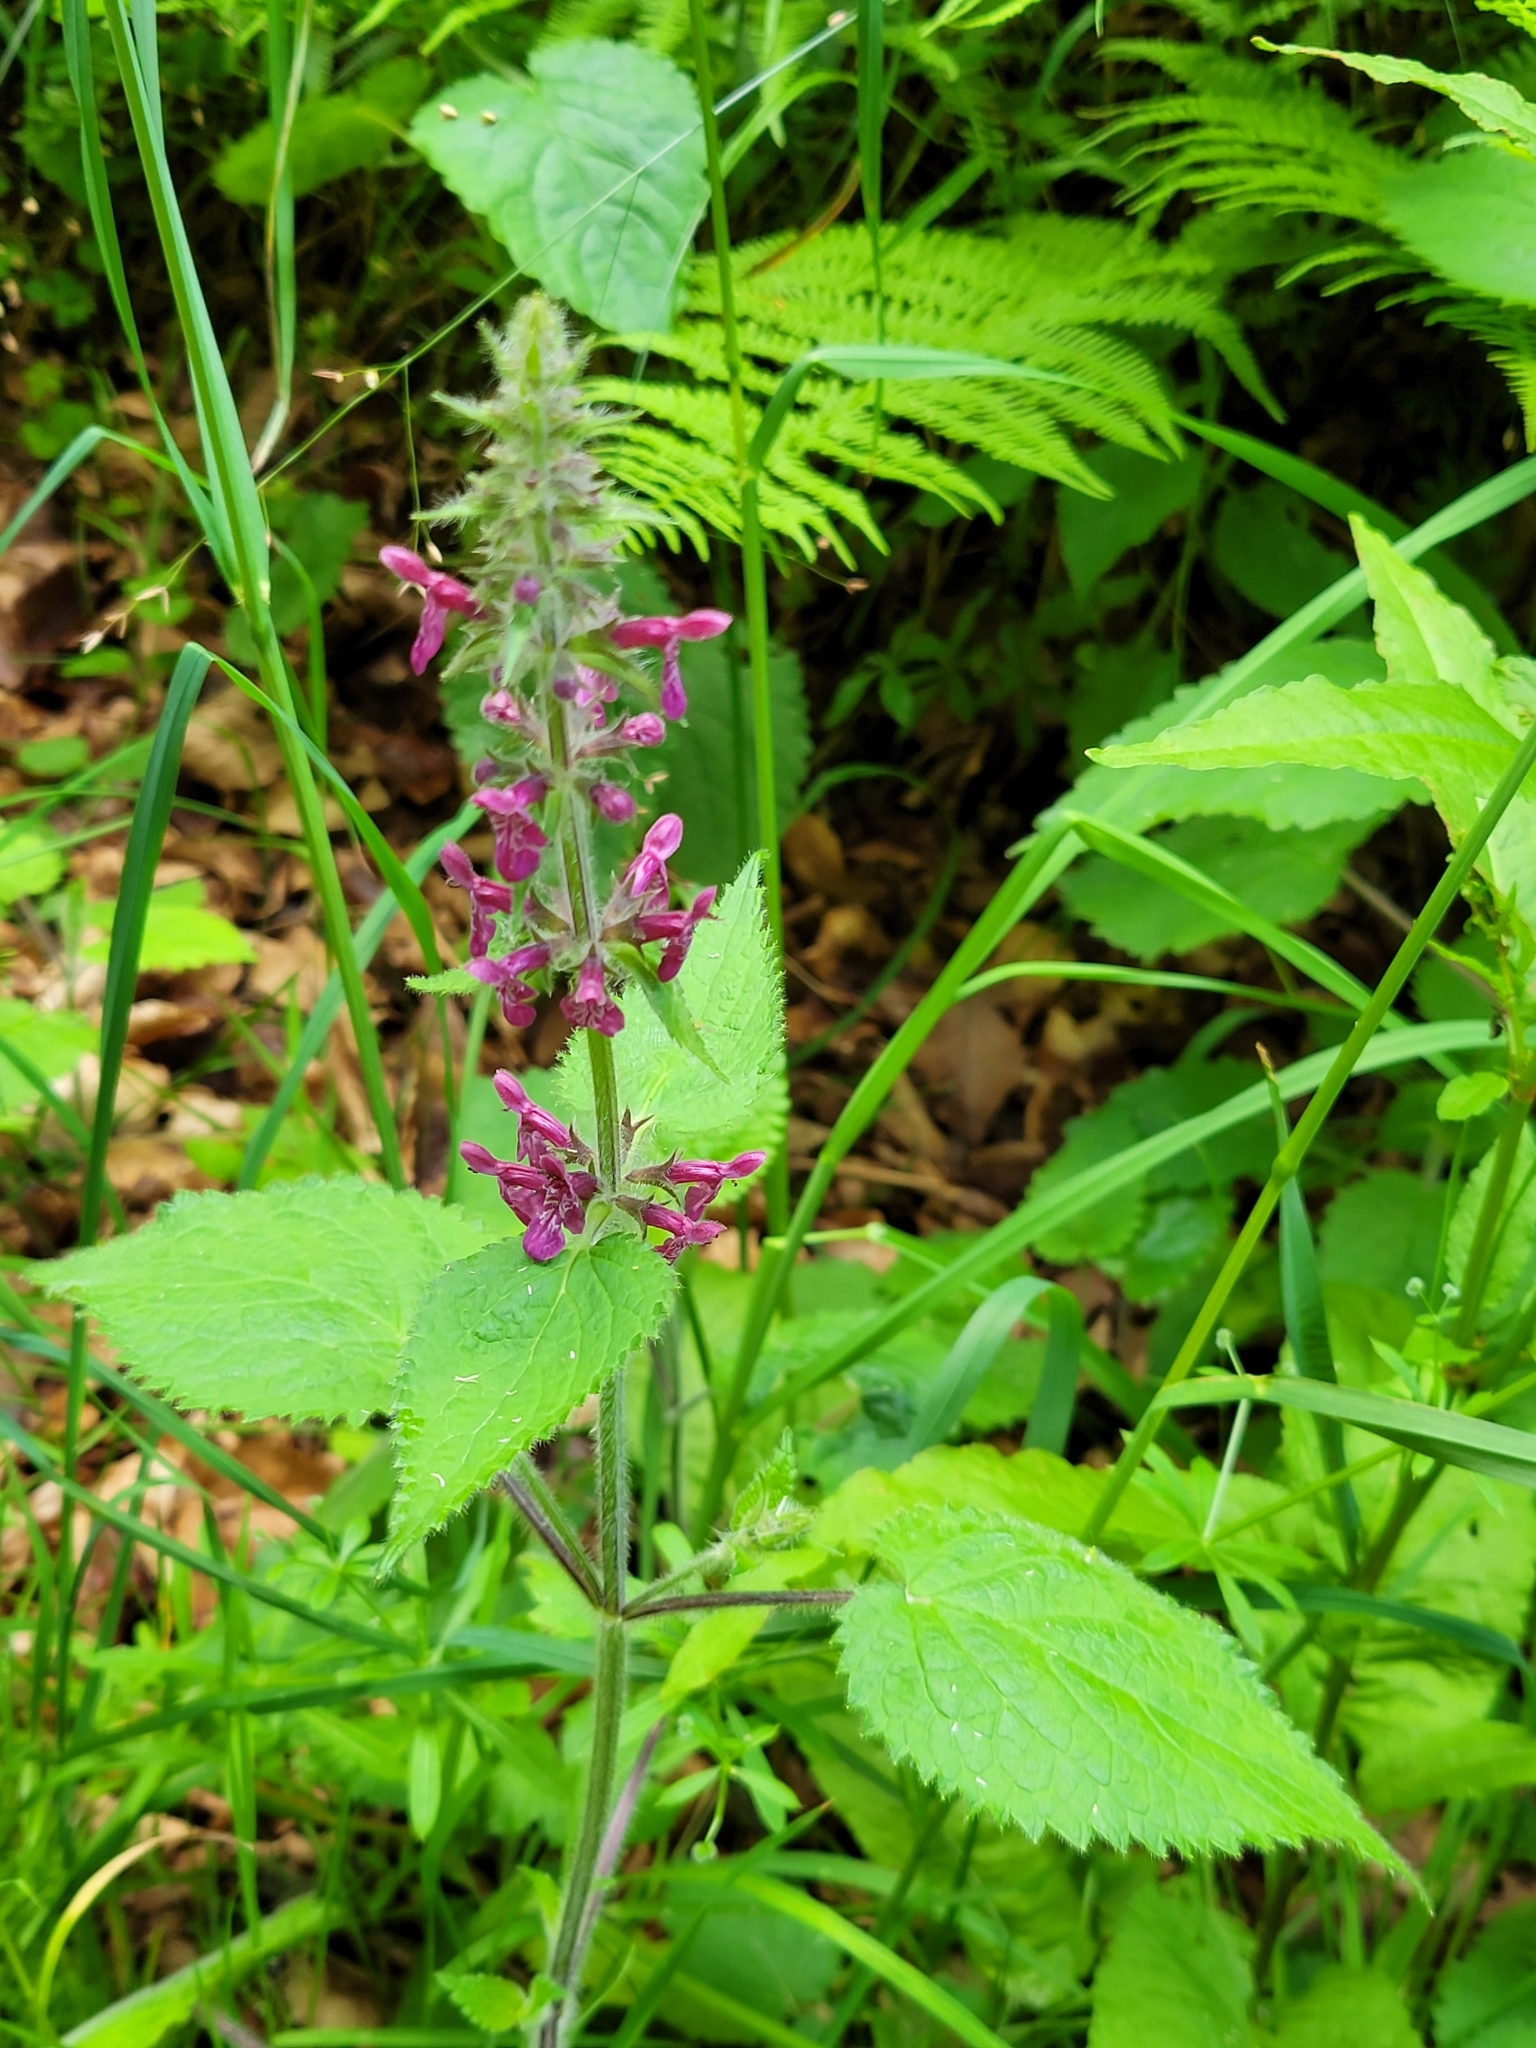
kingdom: Plantae
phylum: Tracheophyta
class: Magnoliopsida
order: Lamiales
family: Lamiaceae
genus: Stachys
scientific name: Stachys sylvatica
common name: Hedge woundwort
